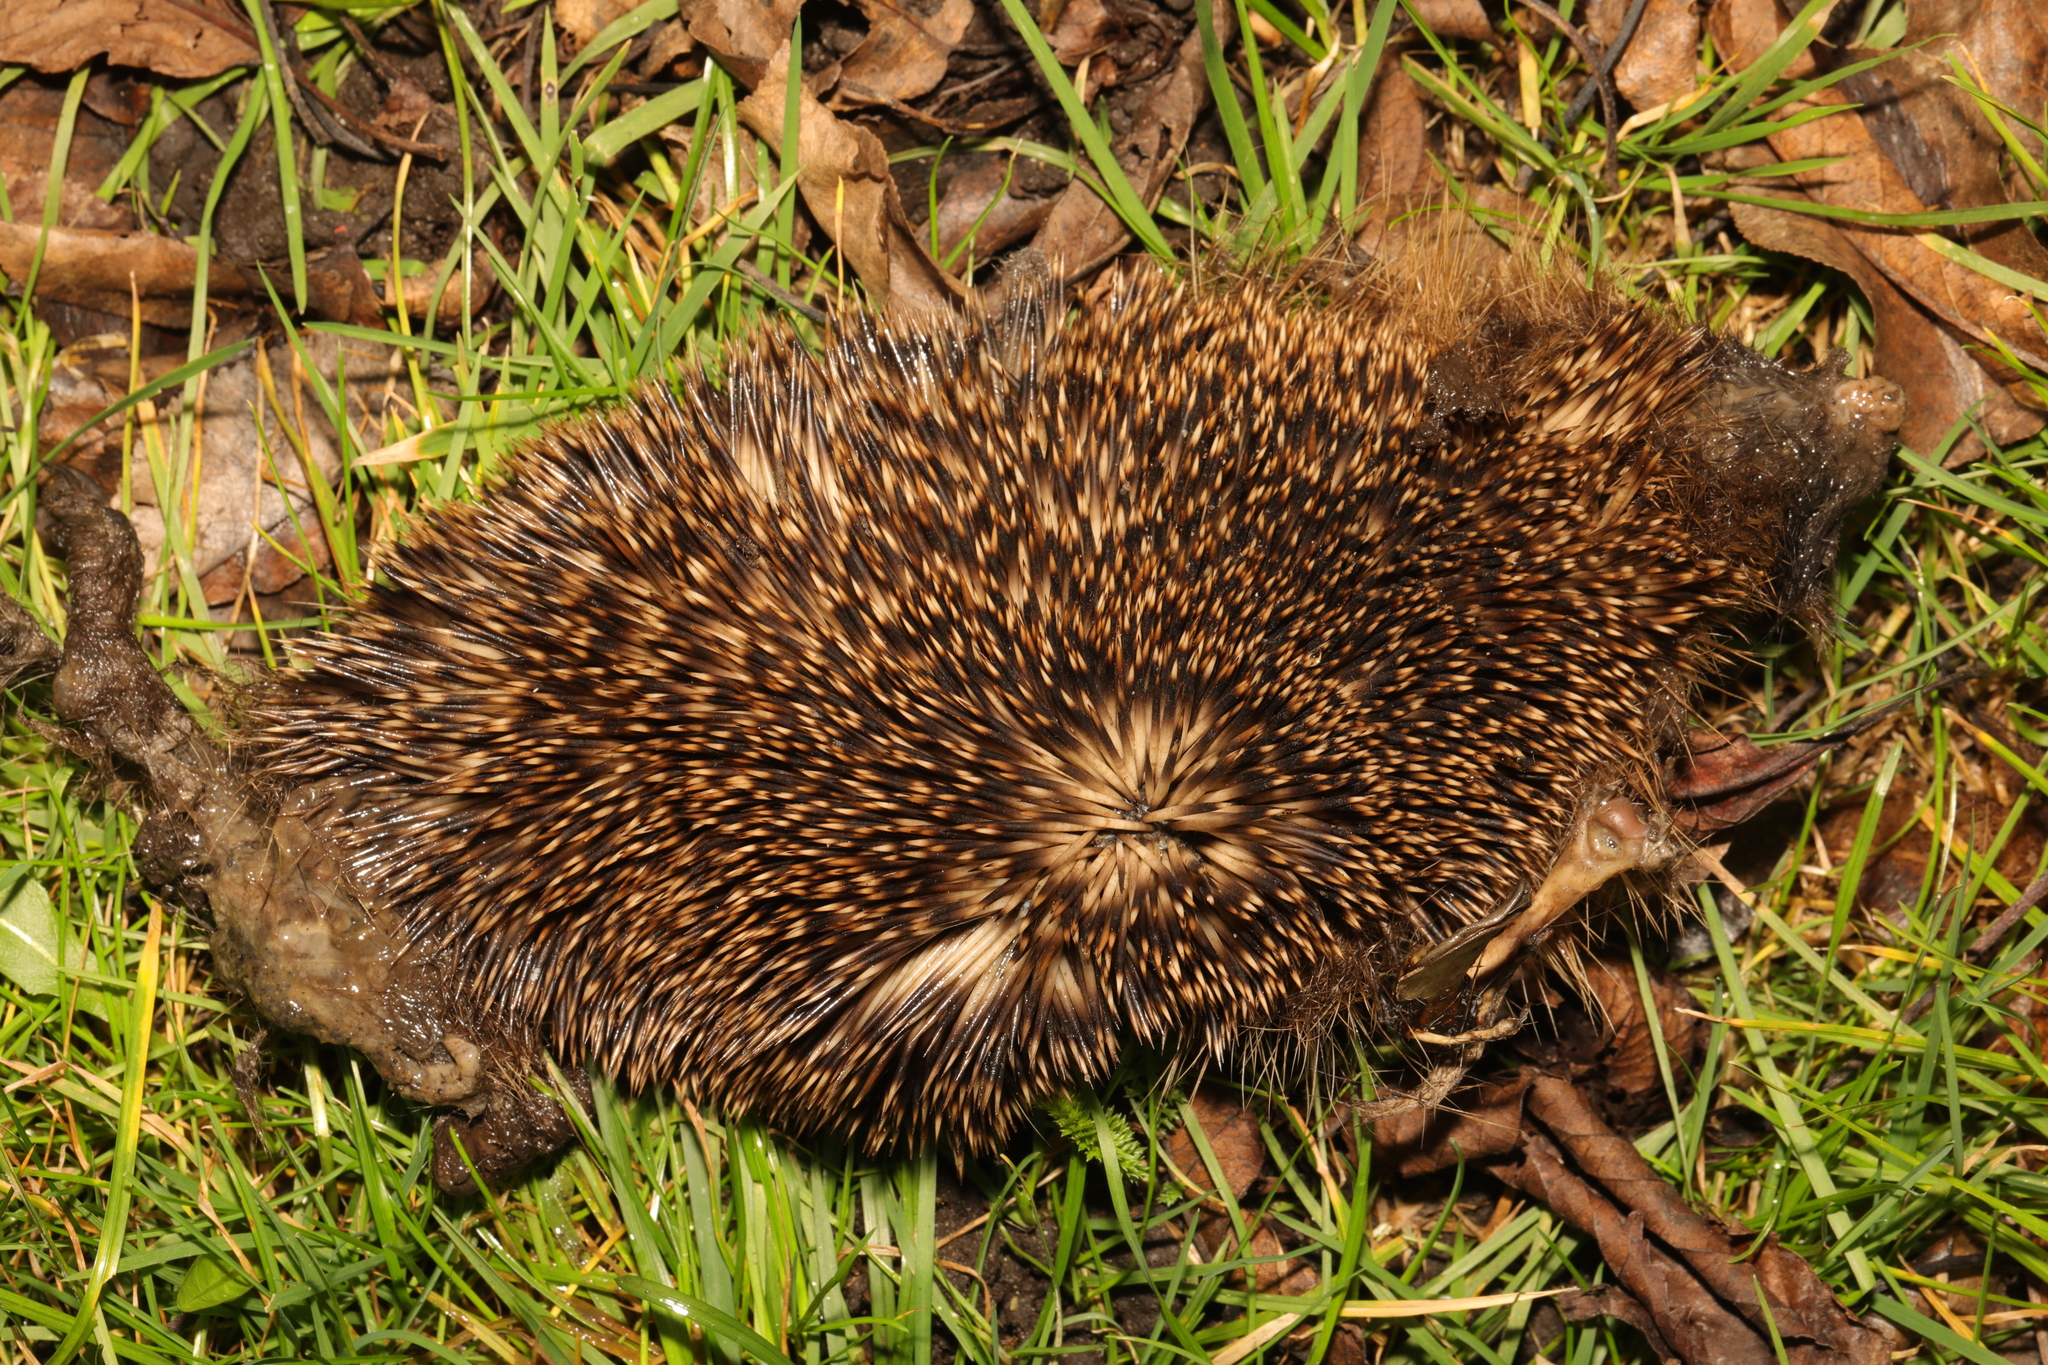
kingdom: Animalia
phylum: Chordata
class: Mammalia
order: Erinaceomorpha
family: Erinaceidae
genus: Erinaceus
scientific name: Erinaceus europaeus
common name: West european hedgehog
